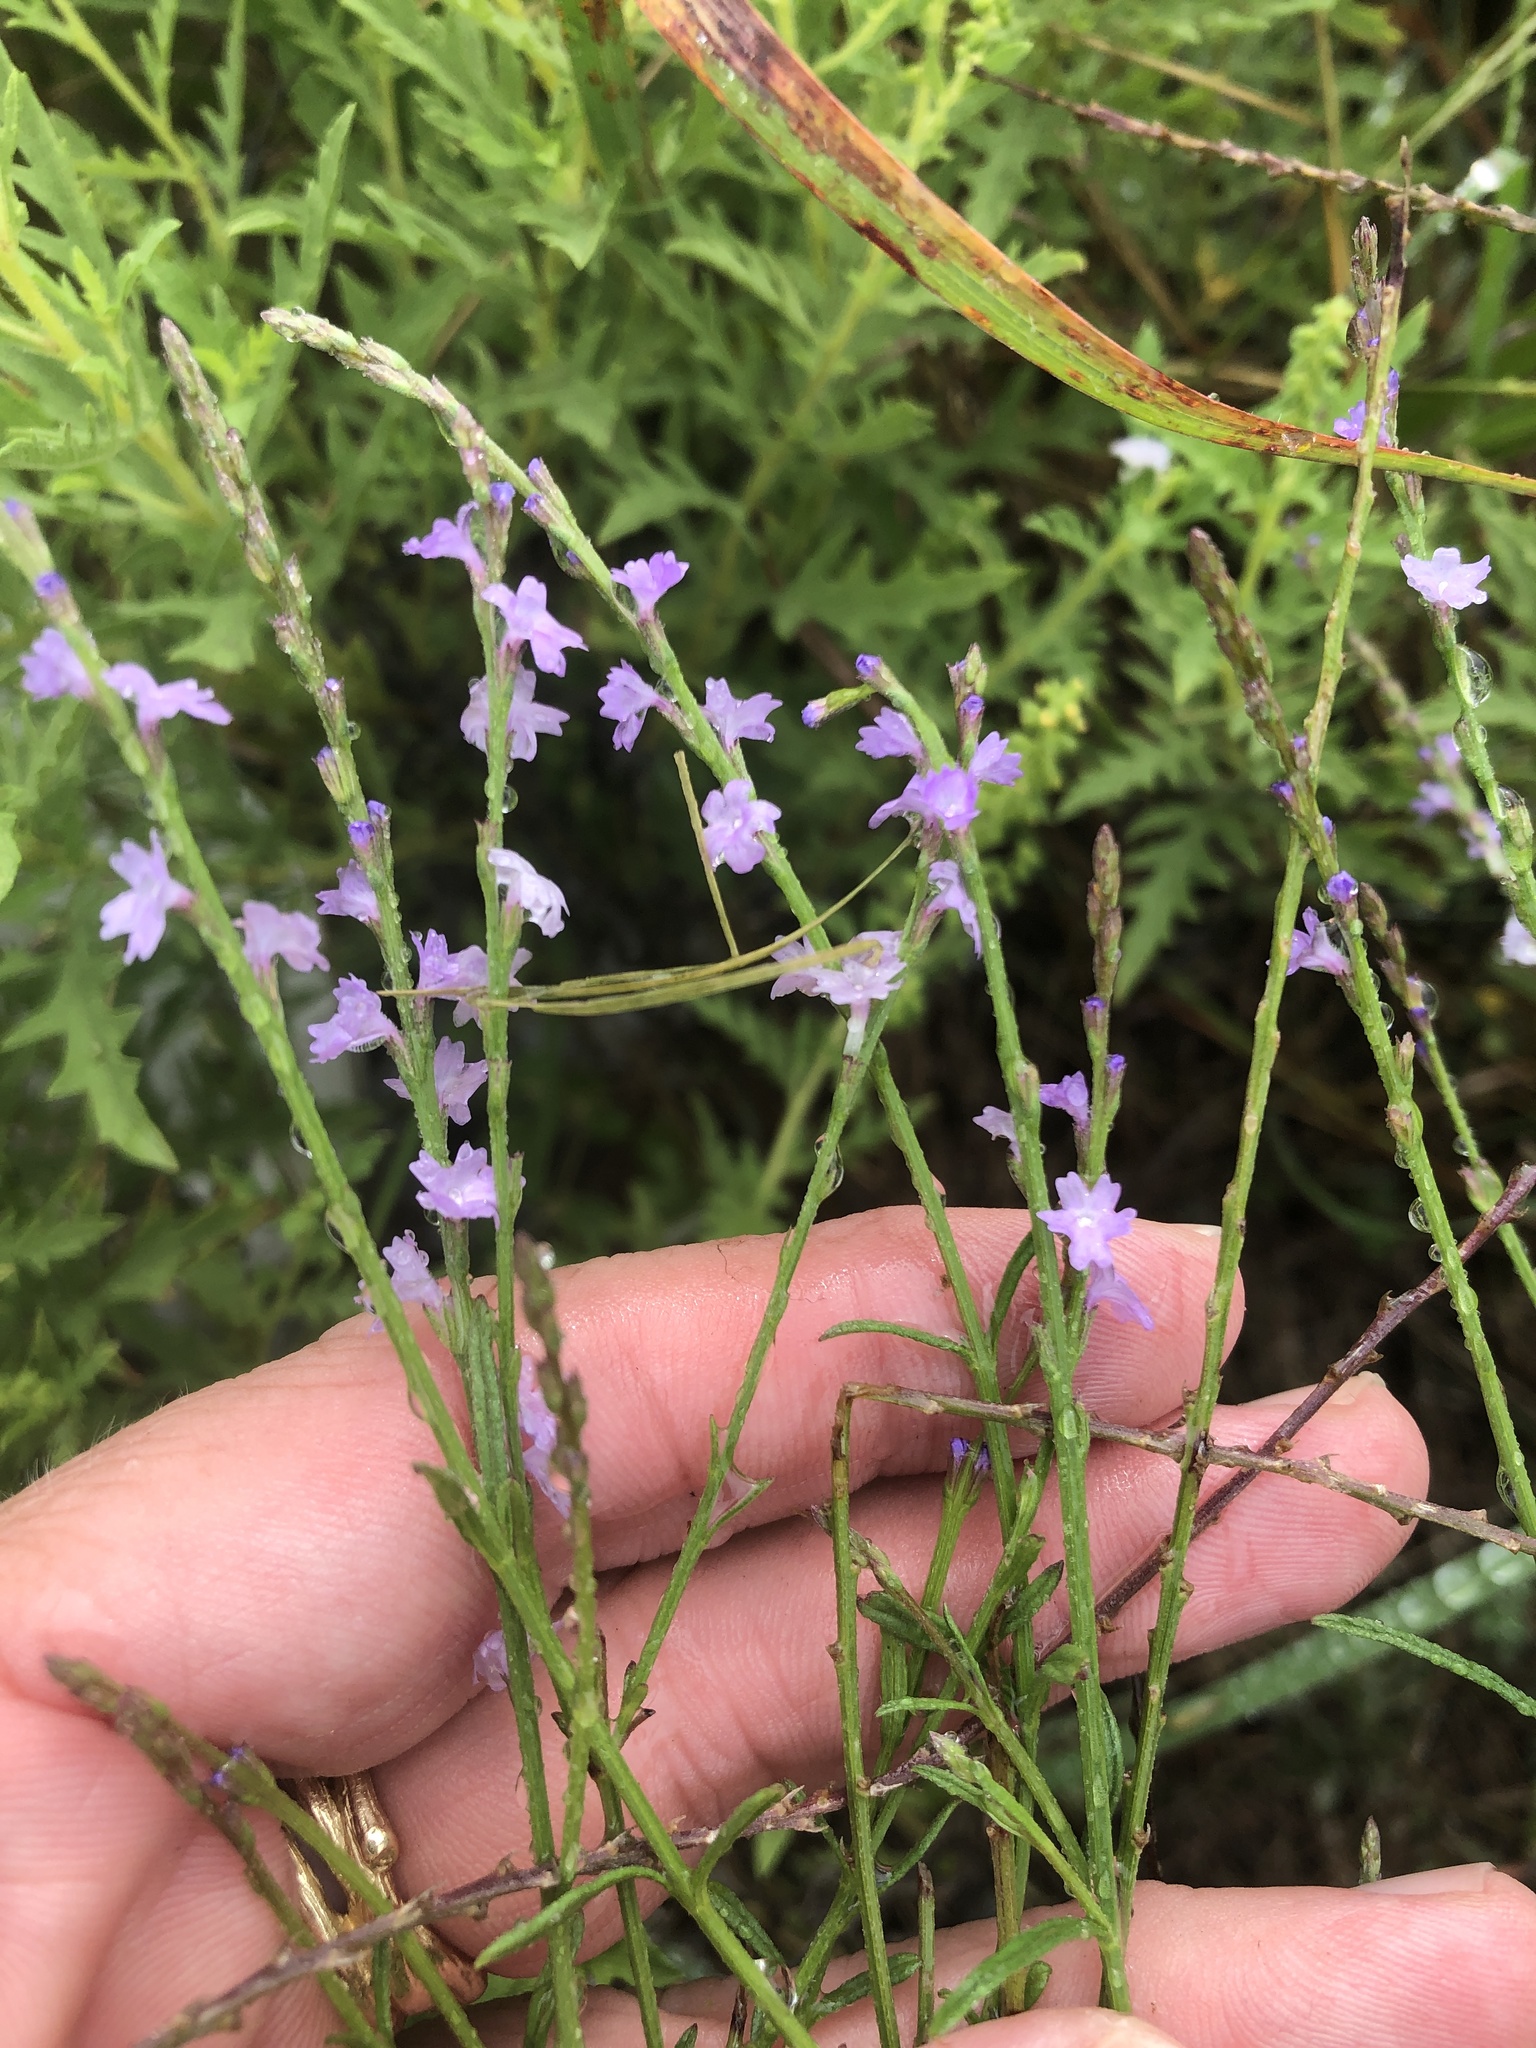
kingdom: Plantae
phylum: Tracheophyta
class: Magnoliopsida
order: Lamiales
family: Verbenaceae
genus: Verbena
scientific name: Verbena halei
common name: Texas vervain
